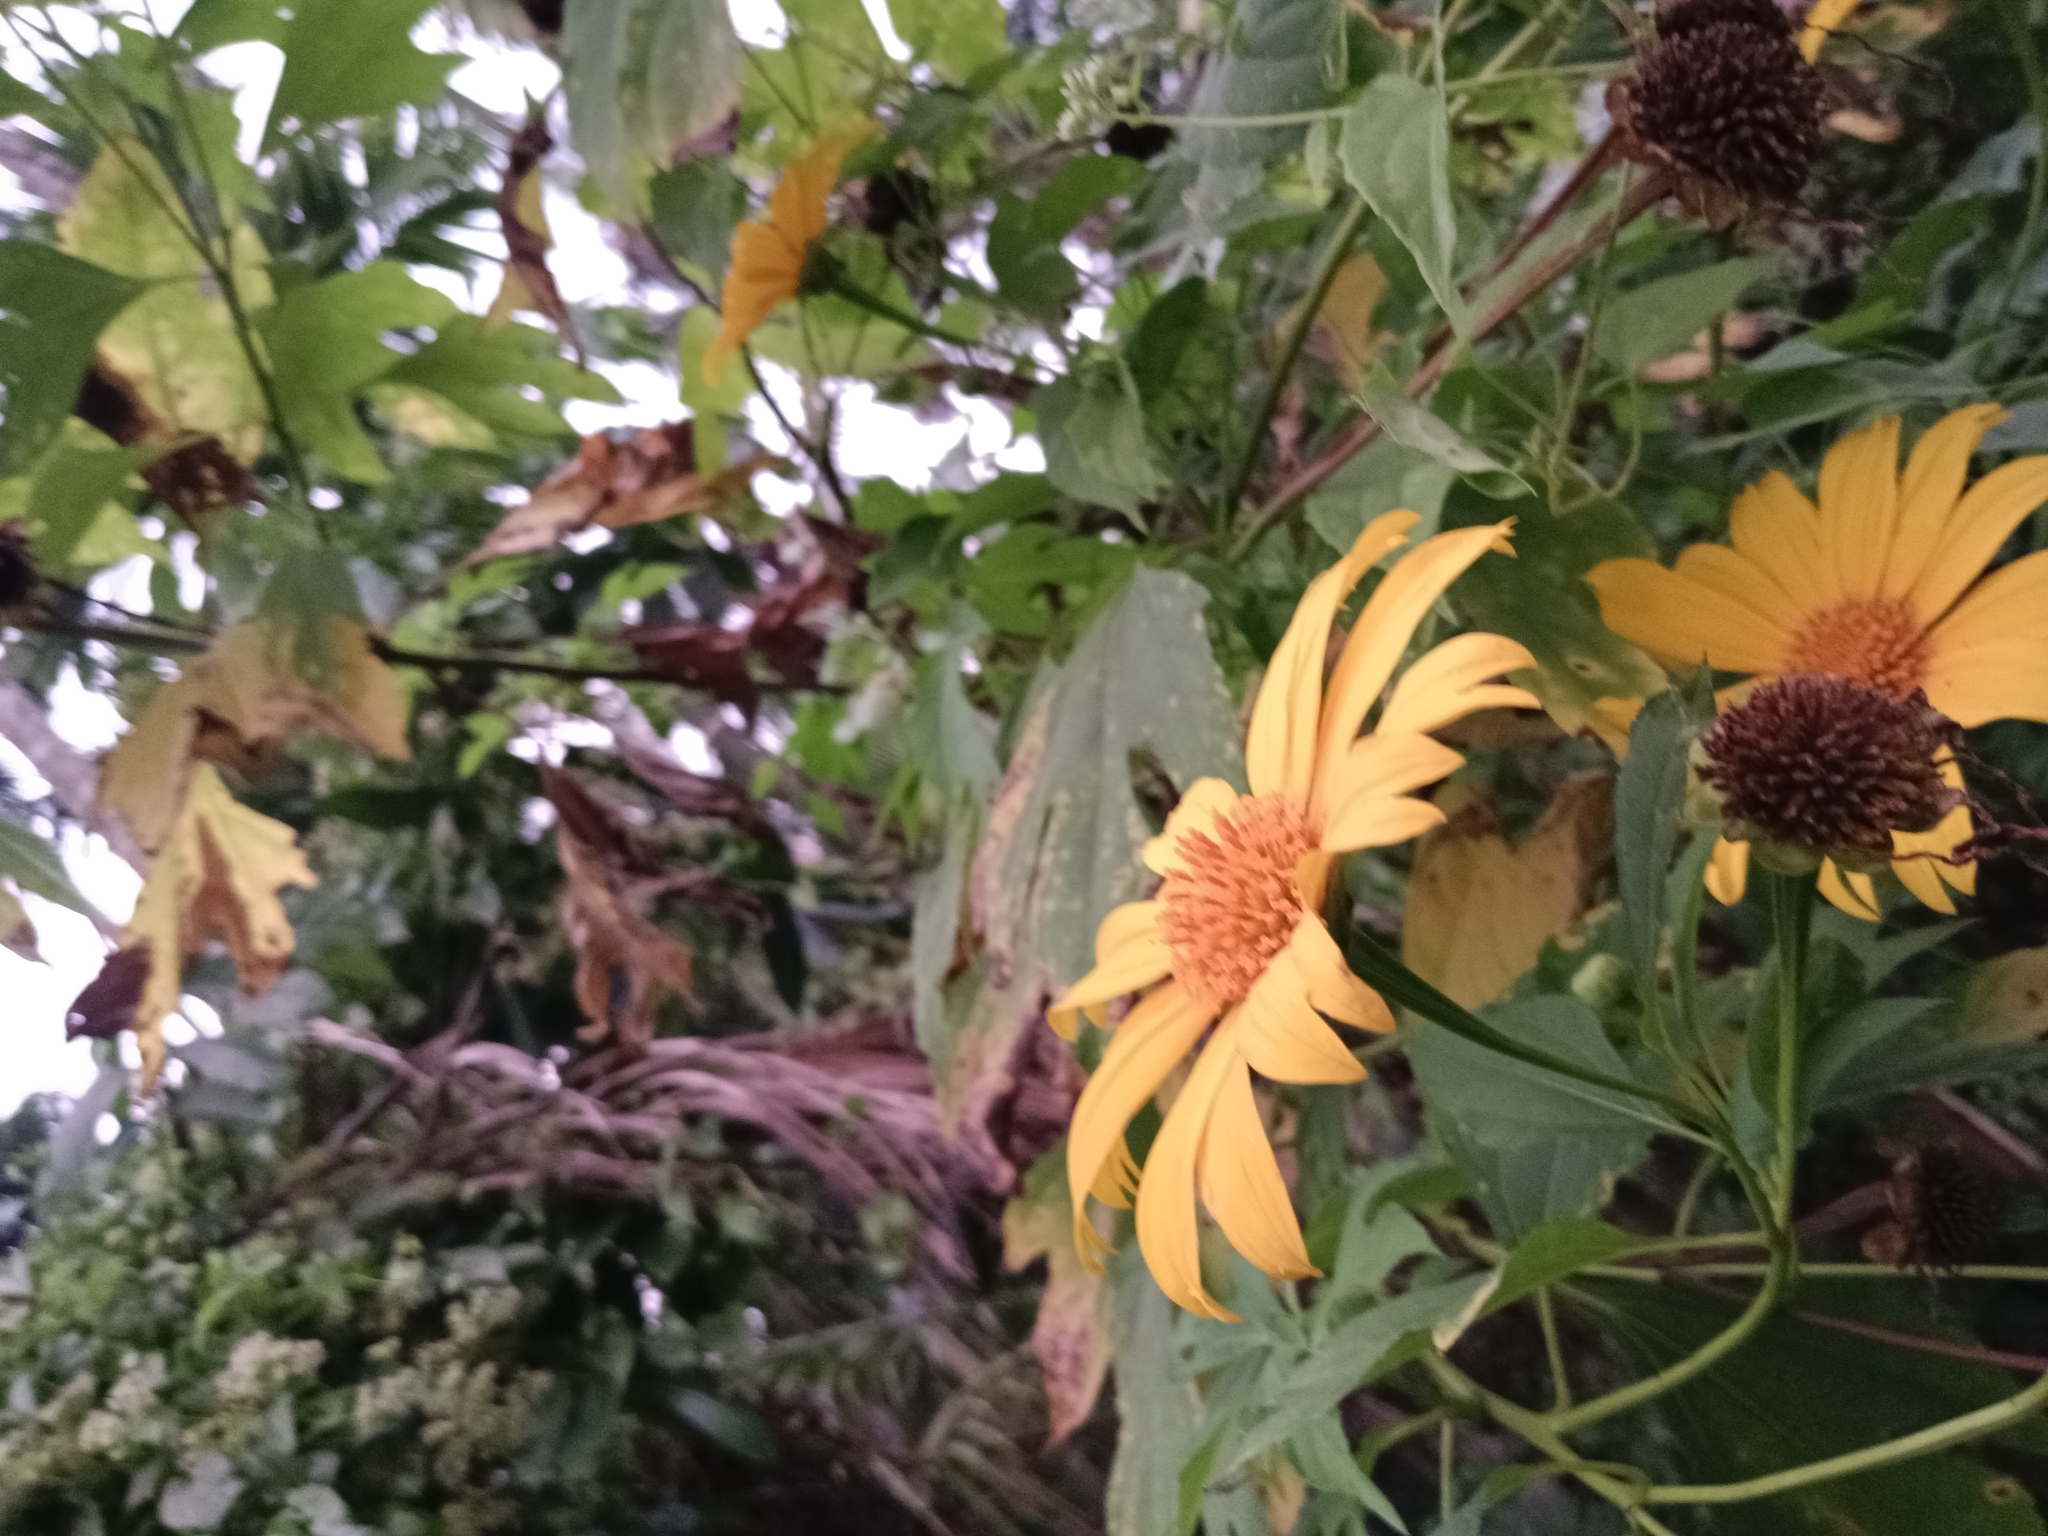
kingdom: Plantae
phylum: Tracheophyta
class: Magnoliopsida
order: Asterales
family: Asteraceae
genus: Tithonia
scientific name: Tithonia diversifolia
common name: Tree marigold
